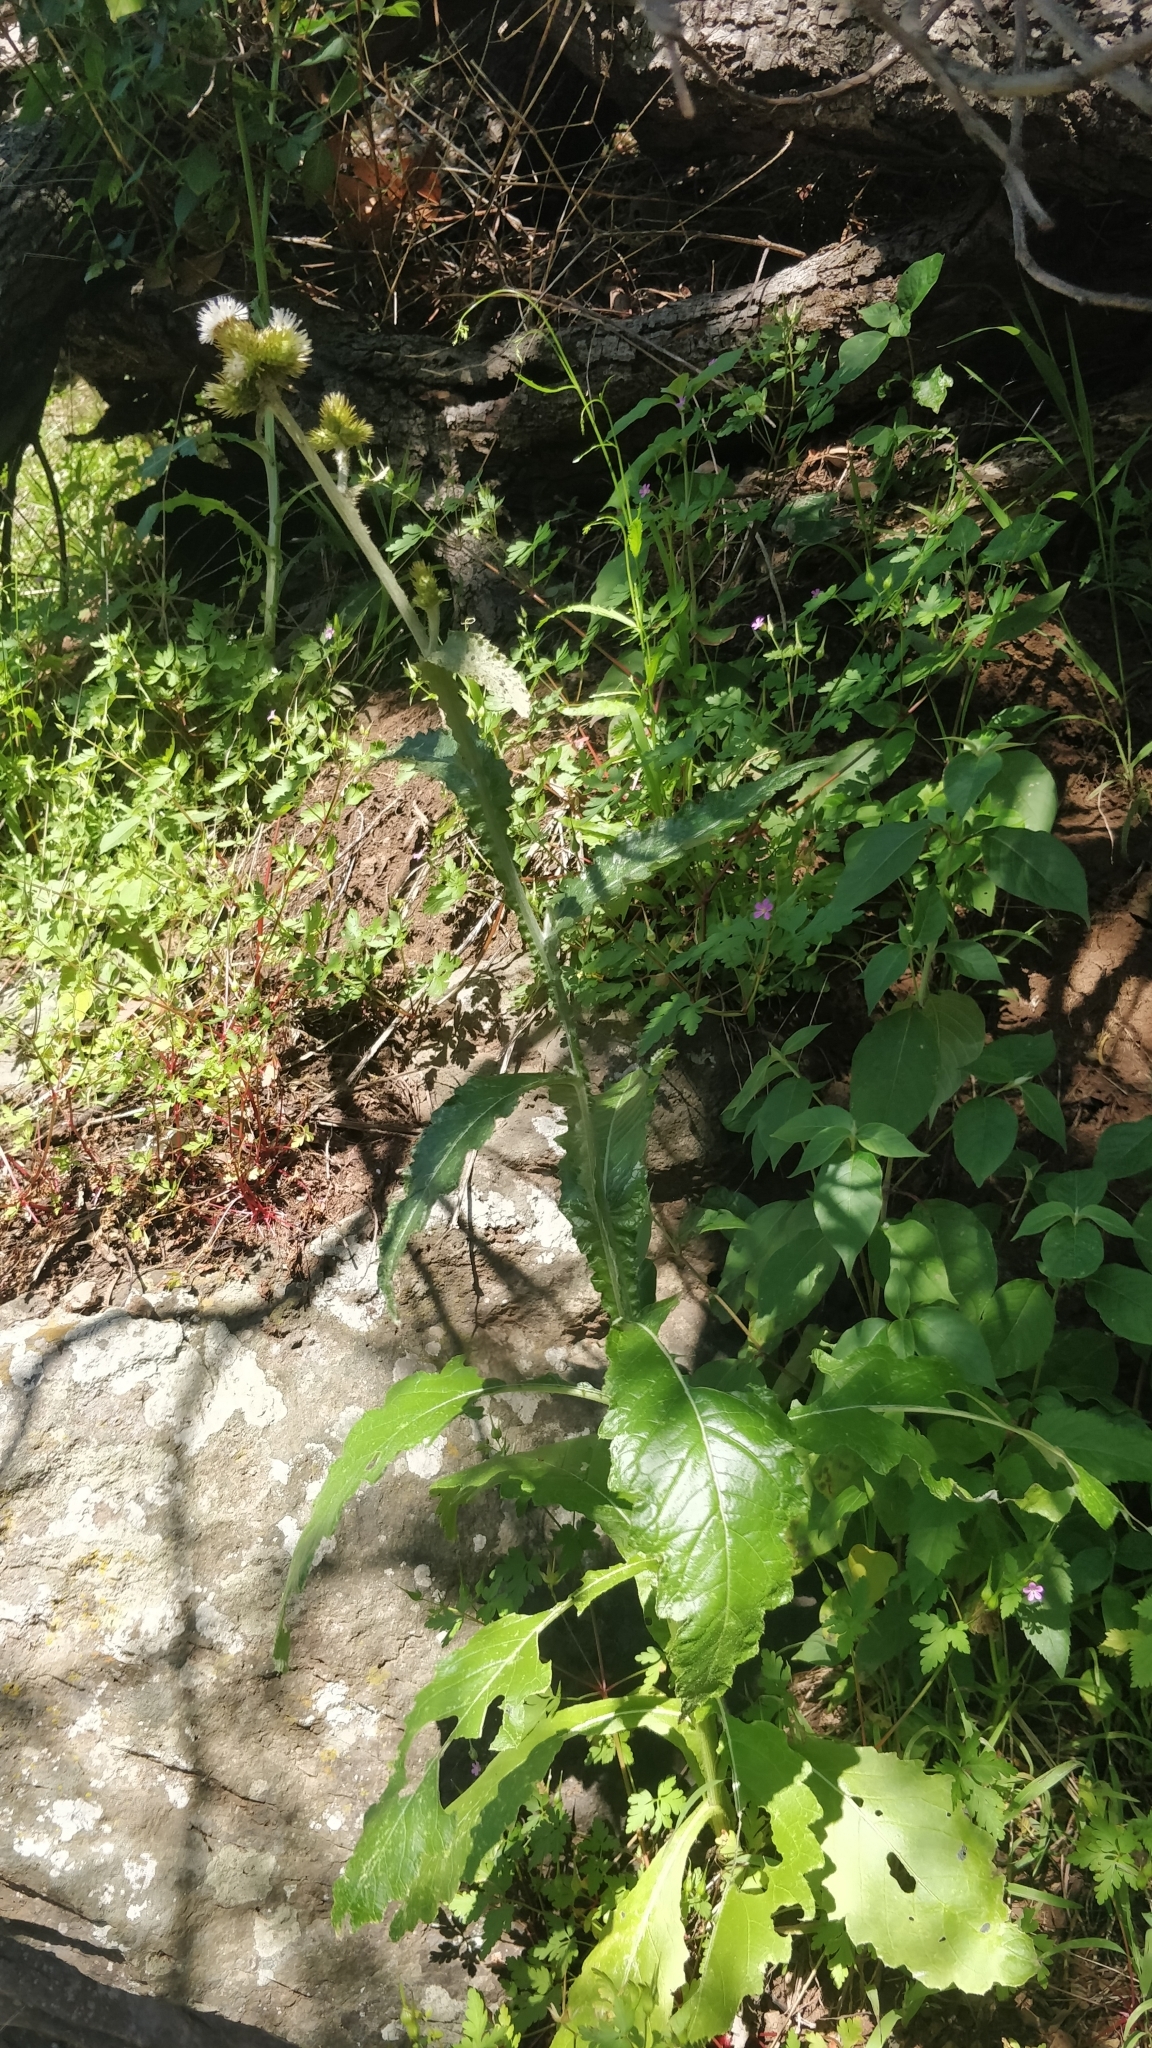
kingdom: Plantae
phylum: Tracheophyta
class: Magnoliopsida
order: Asterales
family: Asteraceae
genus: Carduus
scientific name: Carduus squarrosus
